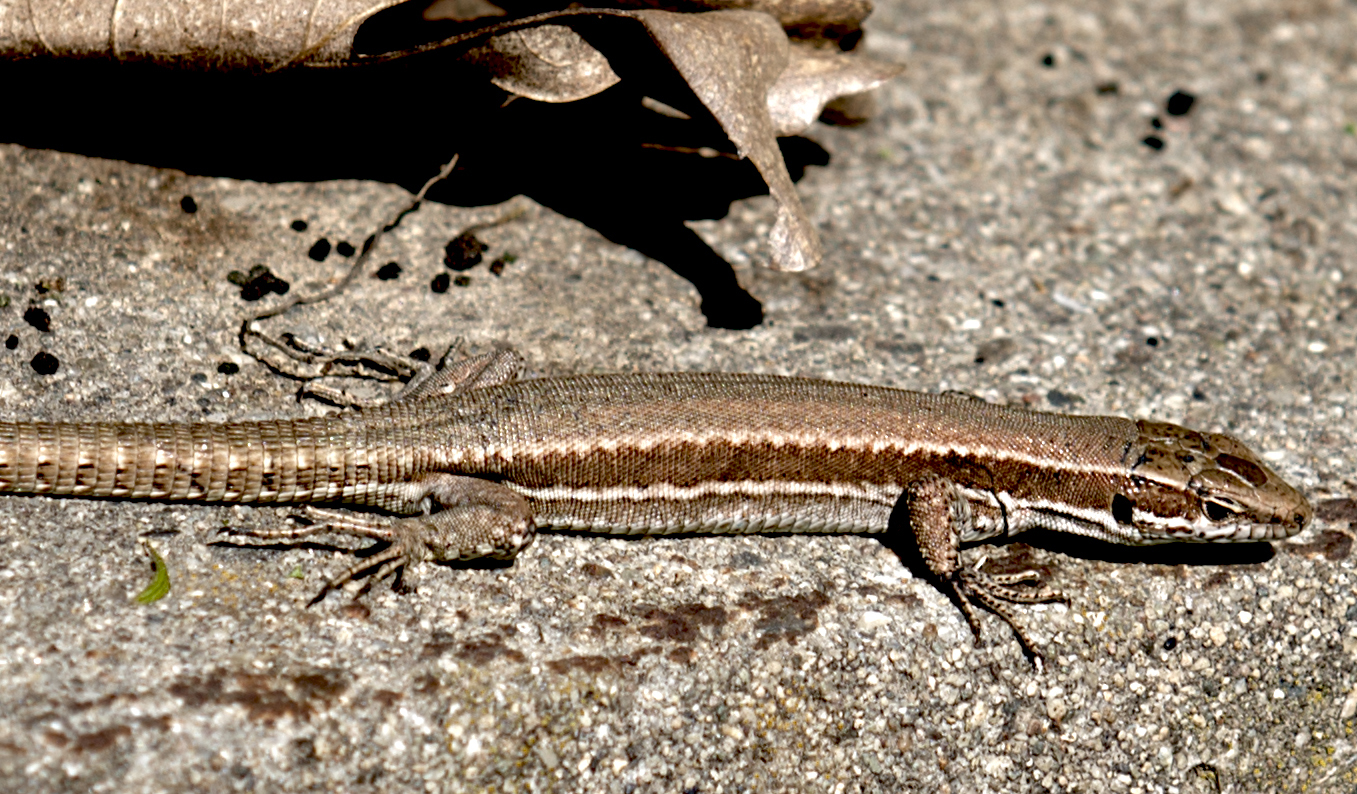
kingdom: Animalia
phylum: Chordata
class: Squamata
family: Lacertidae
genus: Podarcis
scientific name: Podarcis muralis
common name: Common wall lizard
